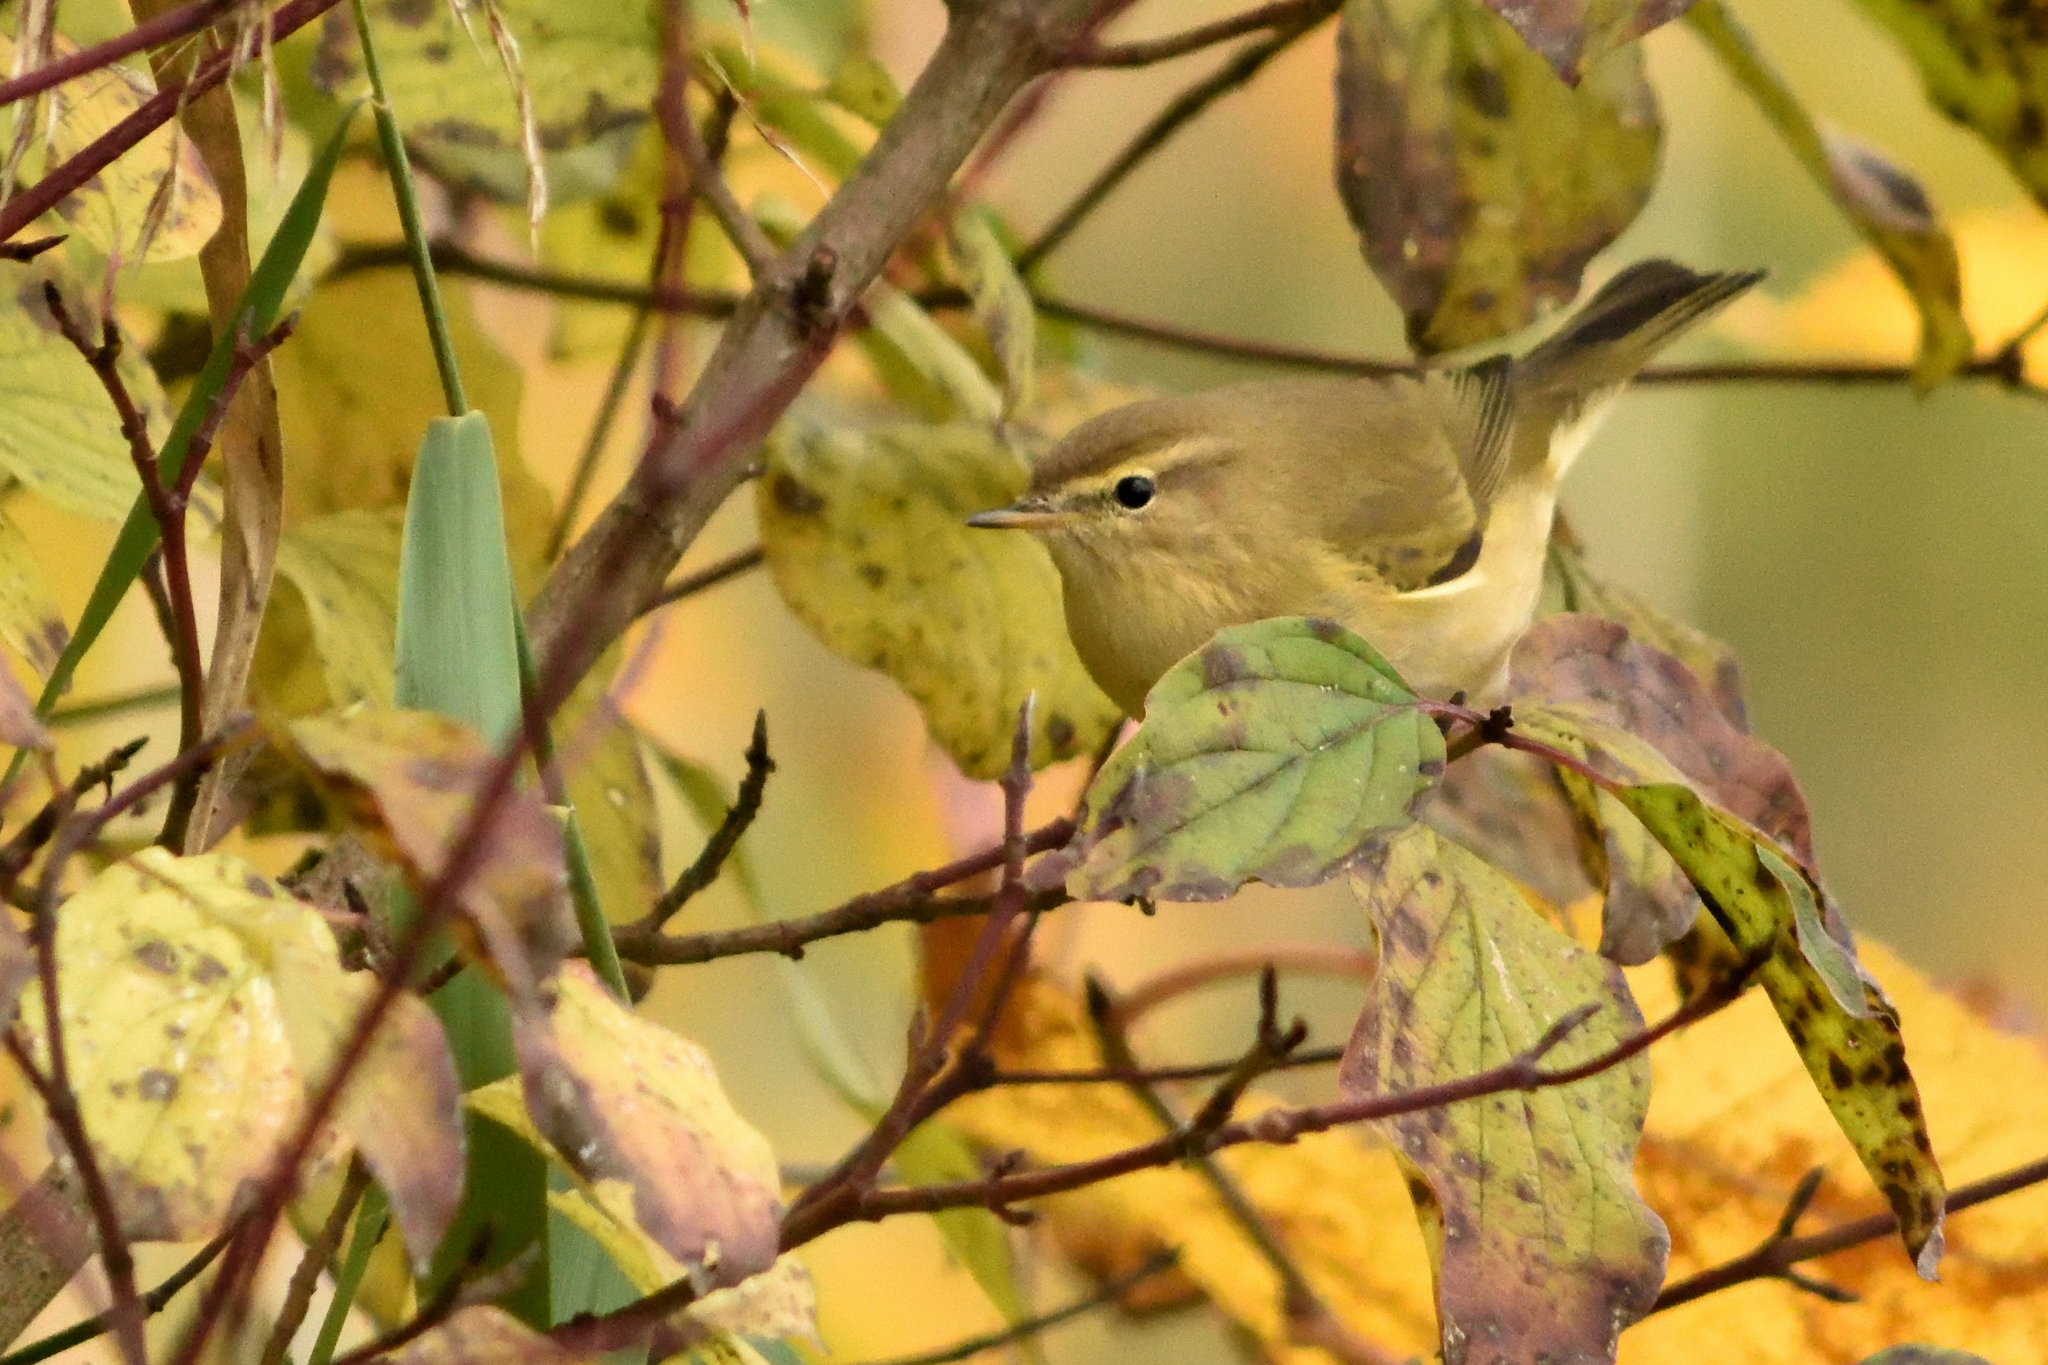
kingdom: Animalia
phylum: Chordata
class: Aves
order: Passeriformes
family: Phylloscopidae
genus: Phylloscopus
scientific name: Phylloscopus collybita
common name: Common chiffchaff
